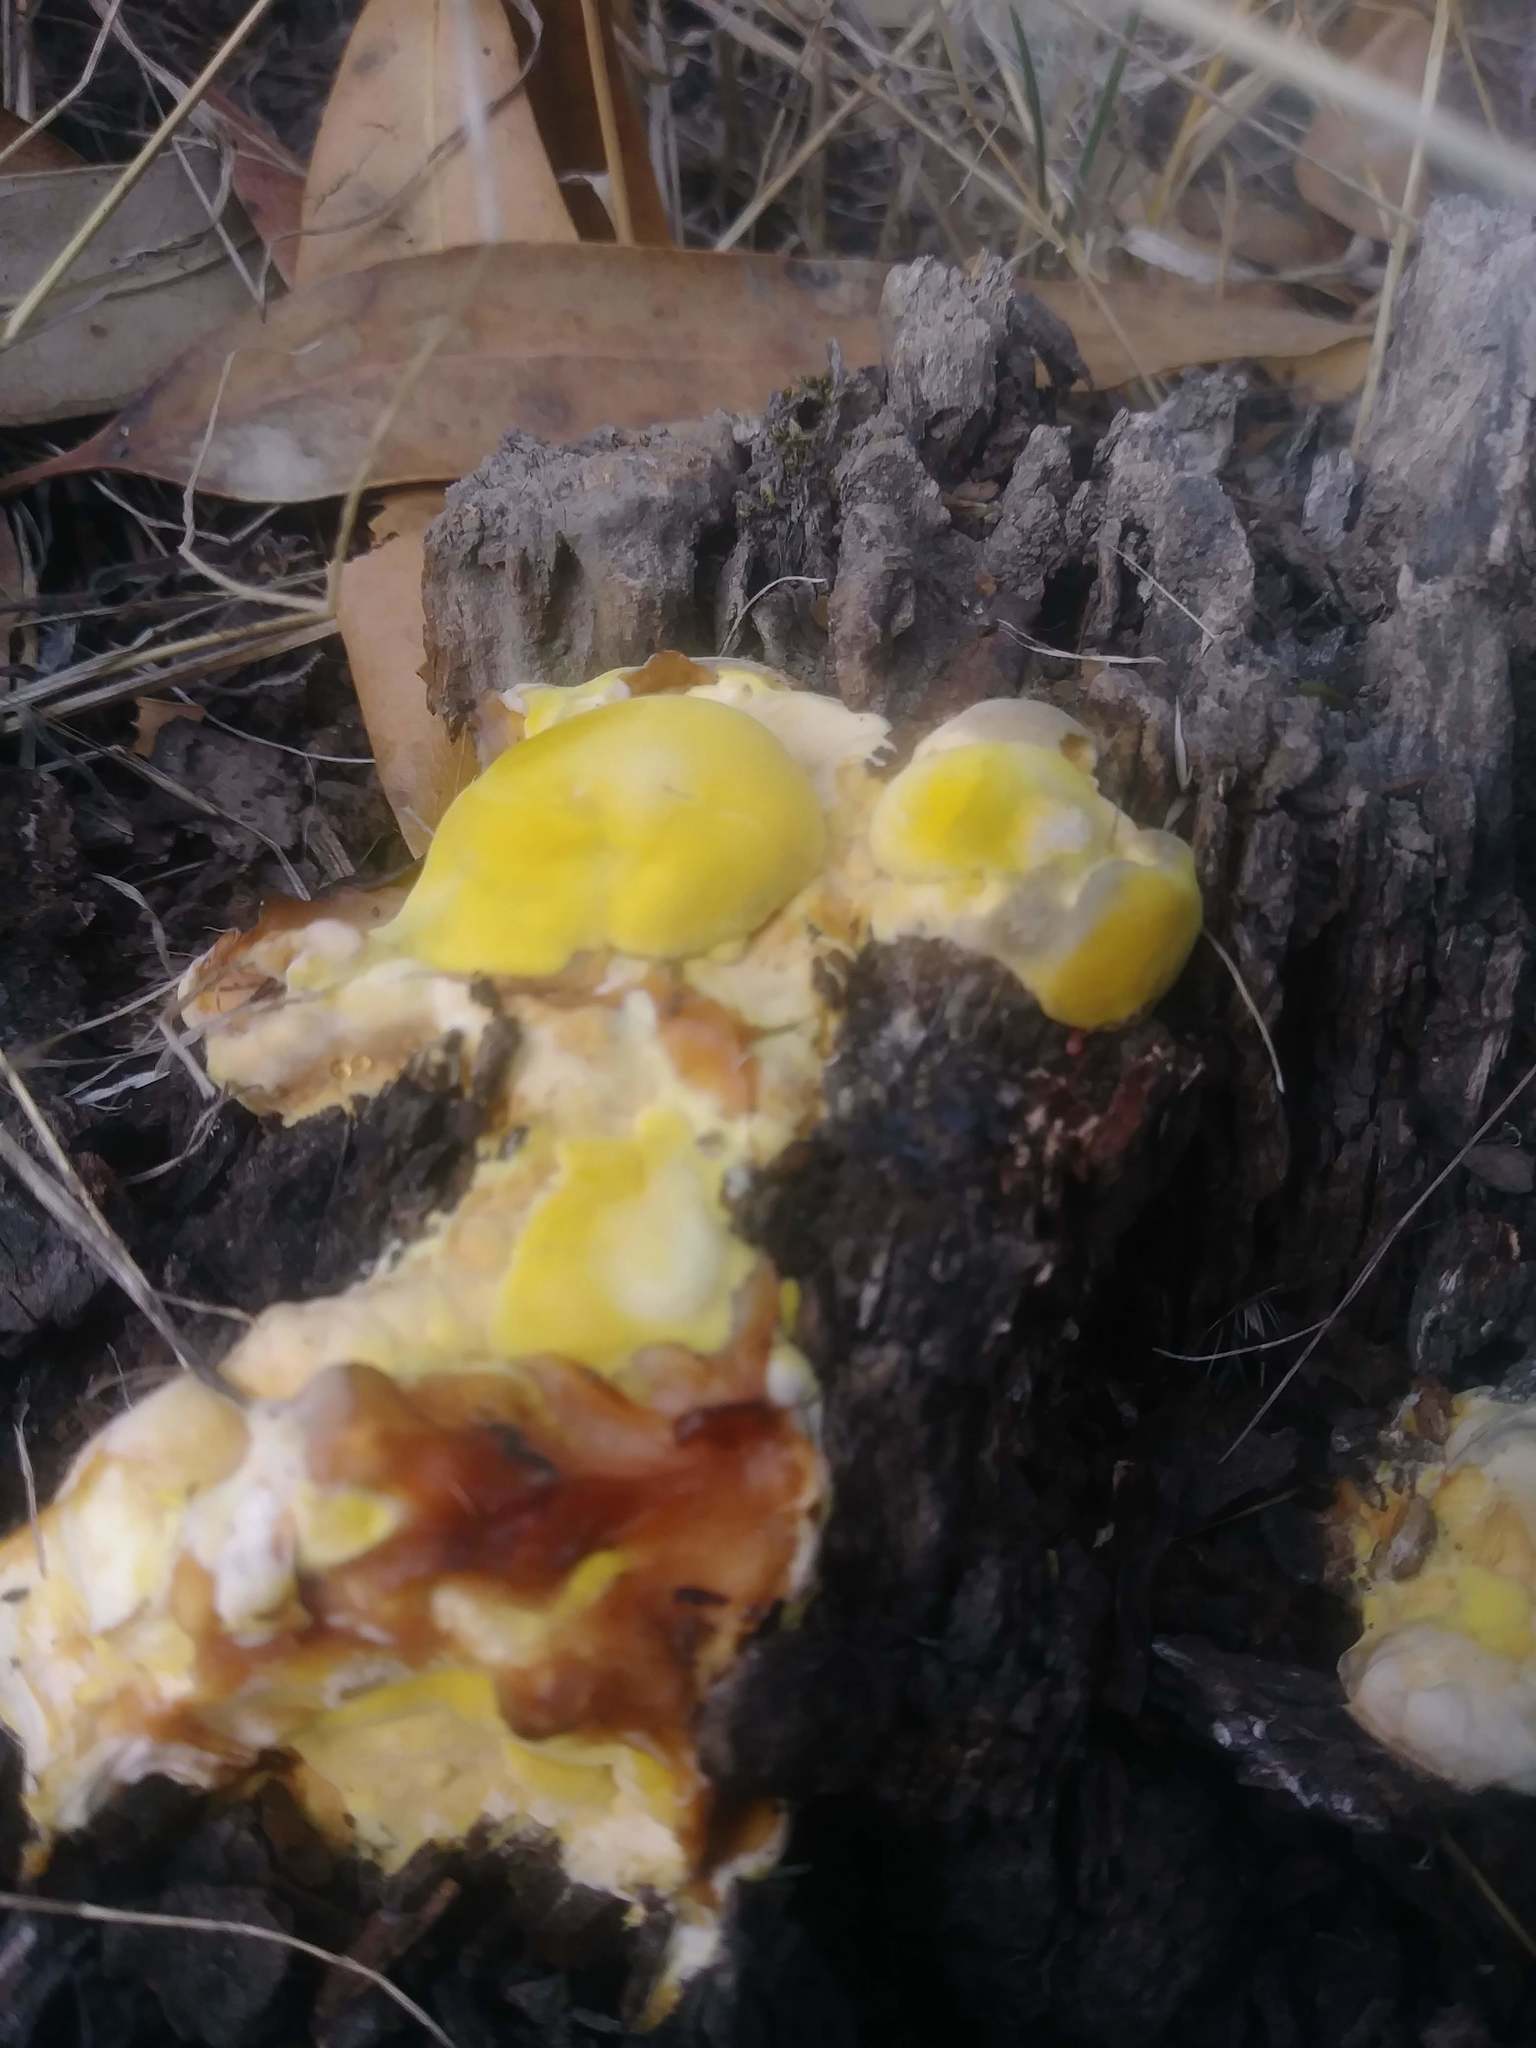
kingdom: Fungi
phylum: Basidiomycota
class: Agaricomycetes
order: Polyporales
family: Laetiporaceae
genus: Laetiporus
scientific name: Laetiporus gilbertsonii
